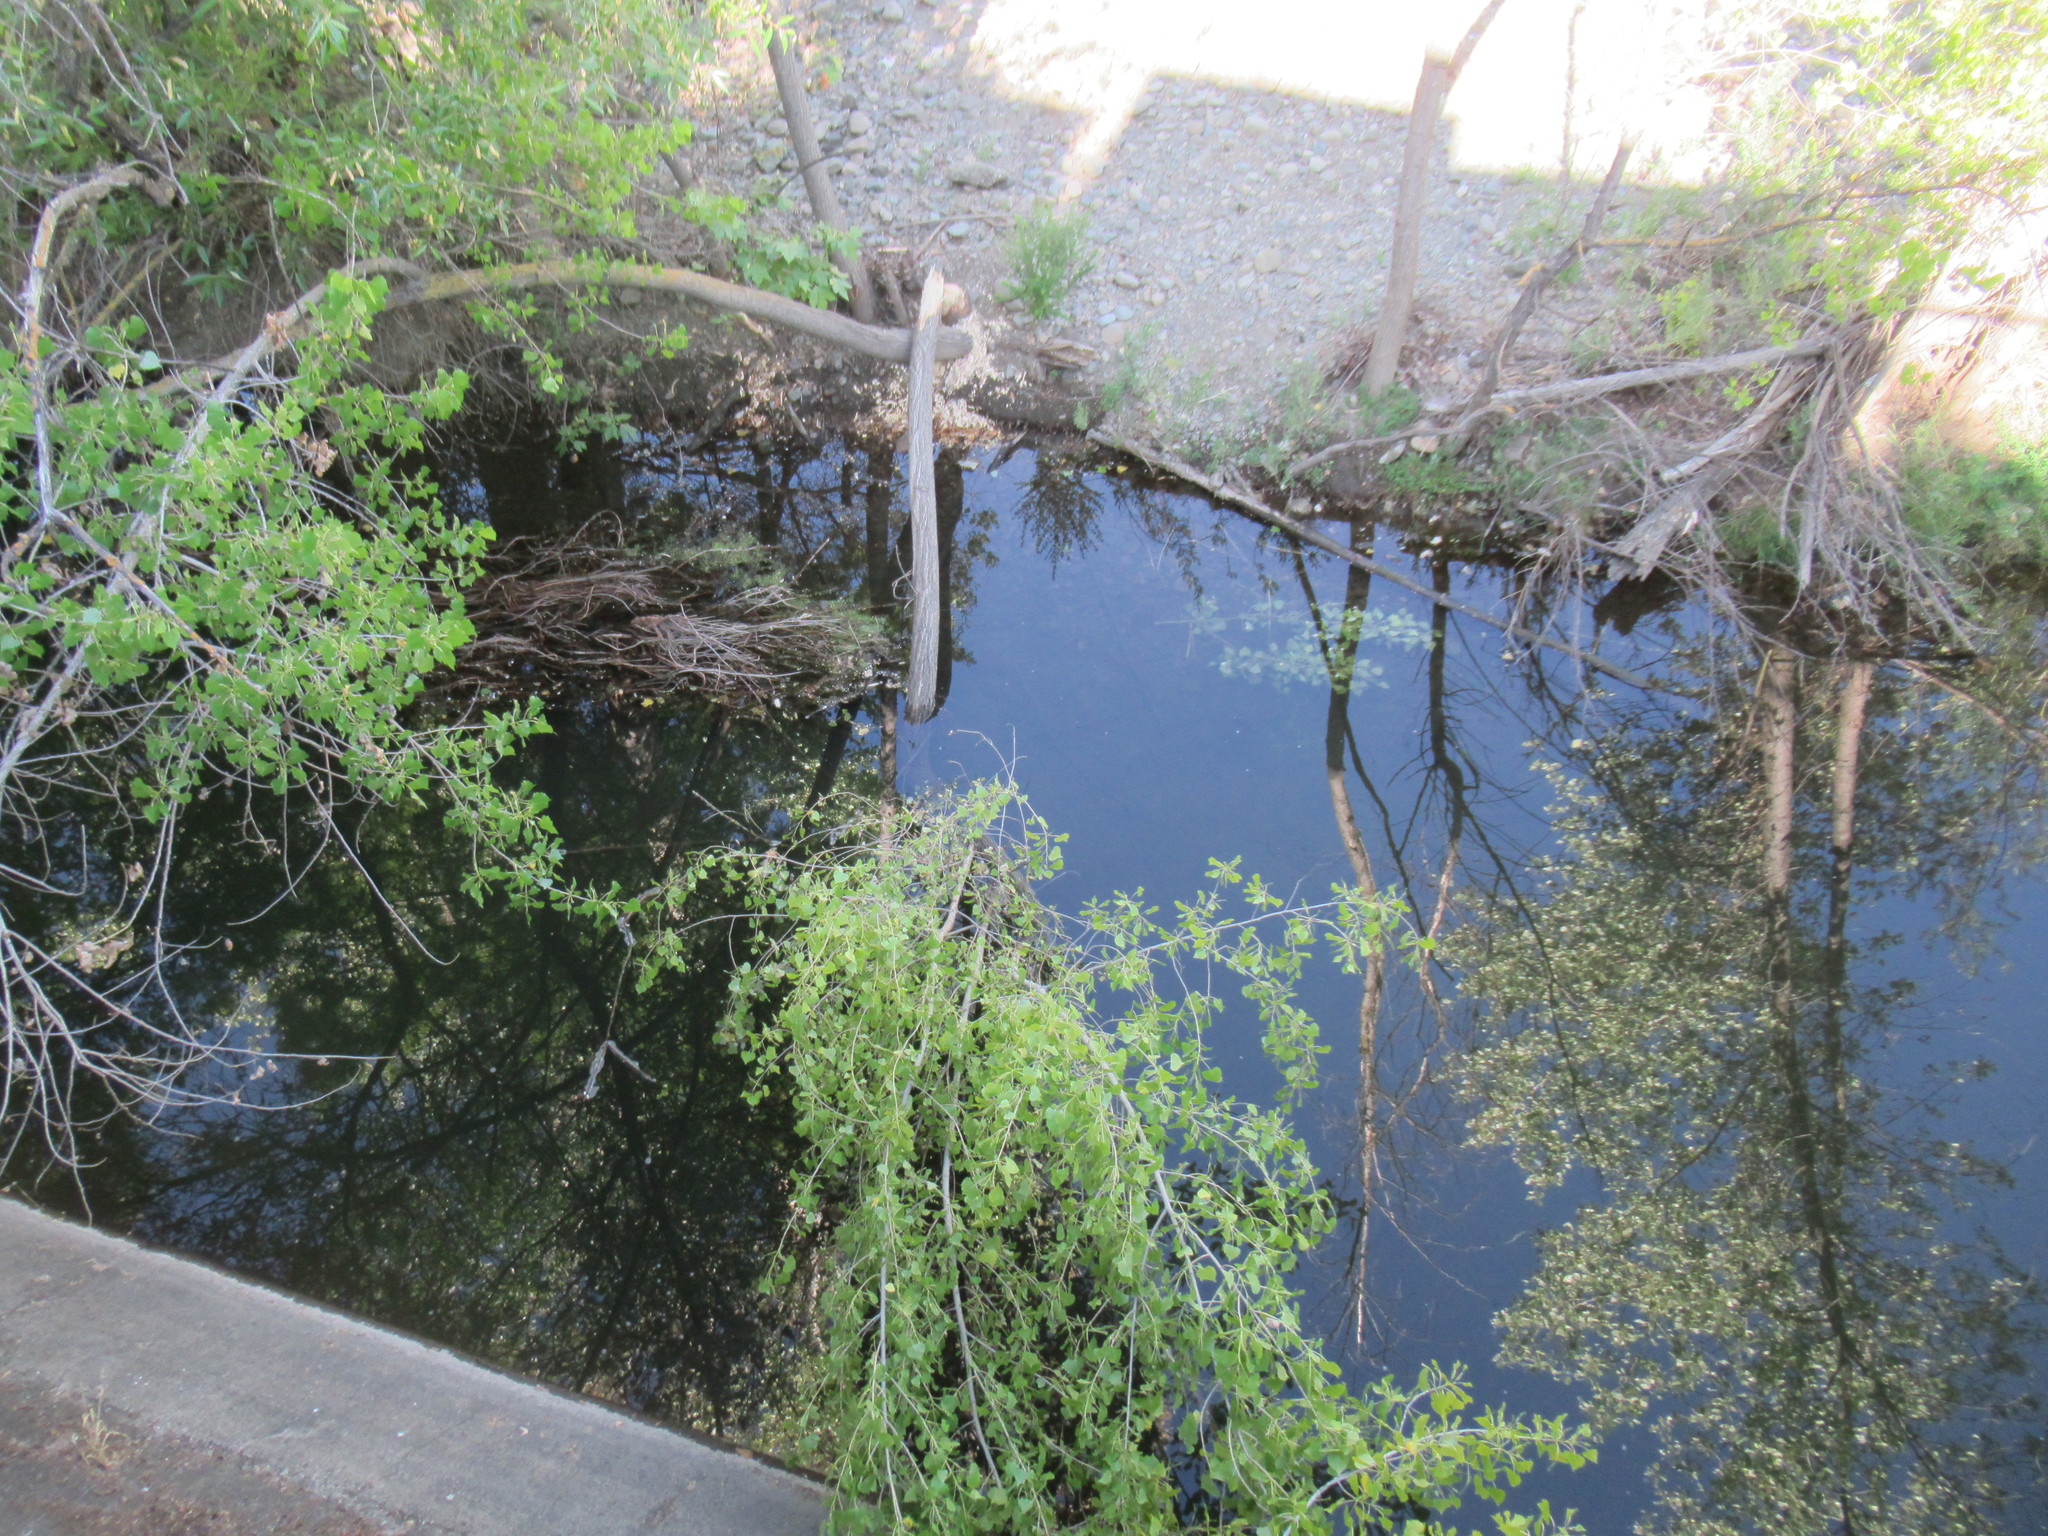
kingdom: Animalia
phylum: Chordata
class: Mammalia
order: Rodentia
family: Castoridae
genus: Castor
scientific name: Castor canadensis
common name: American beaver
